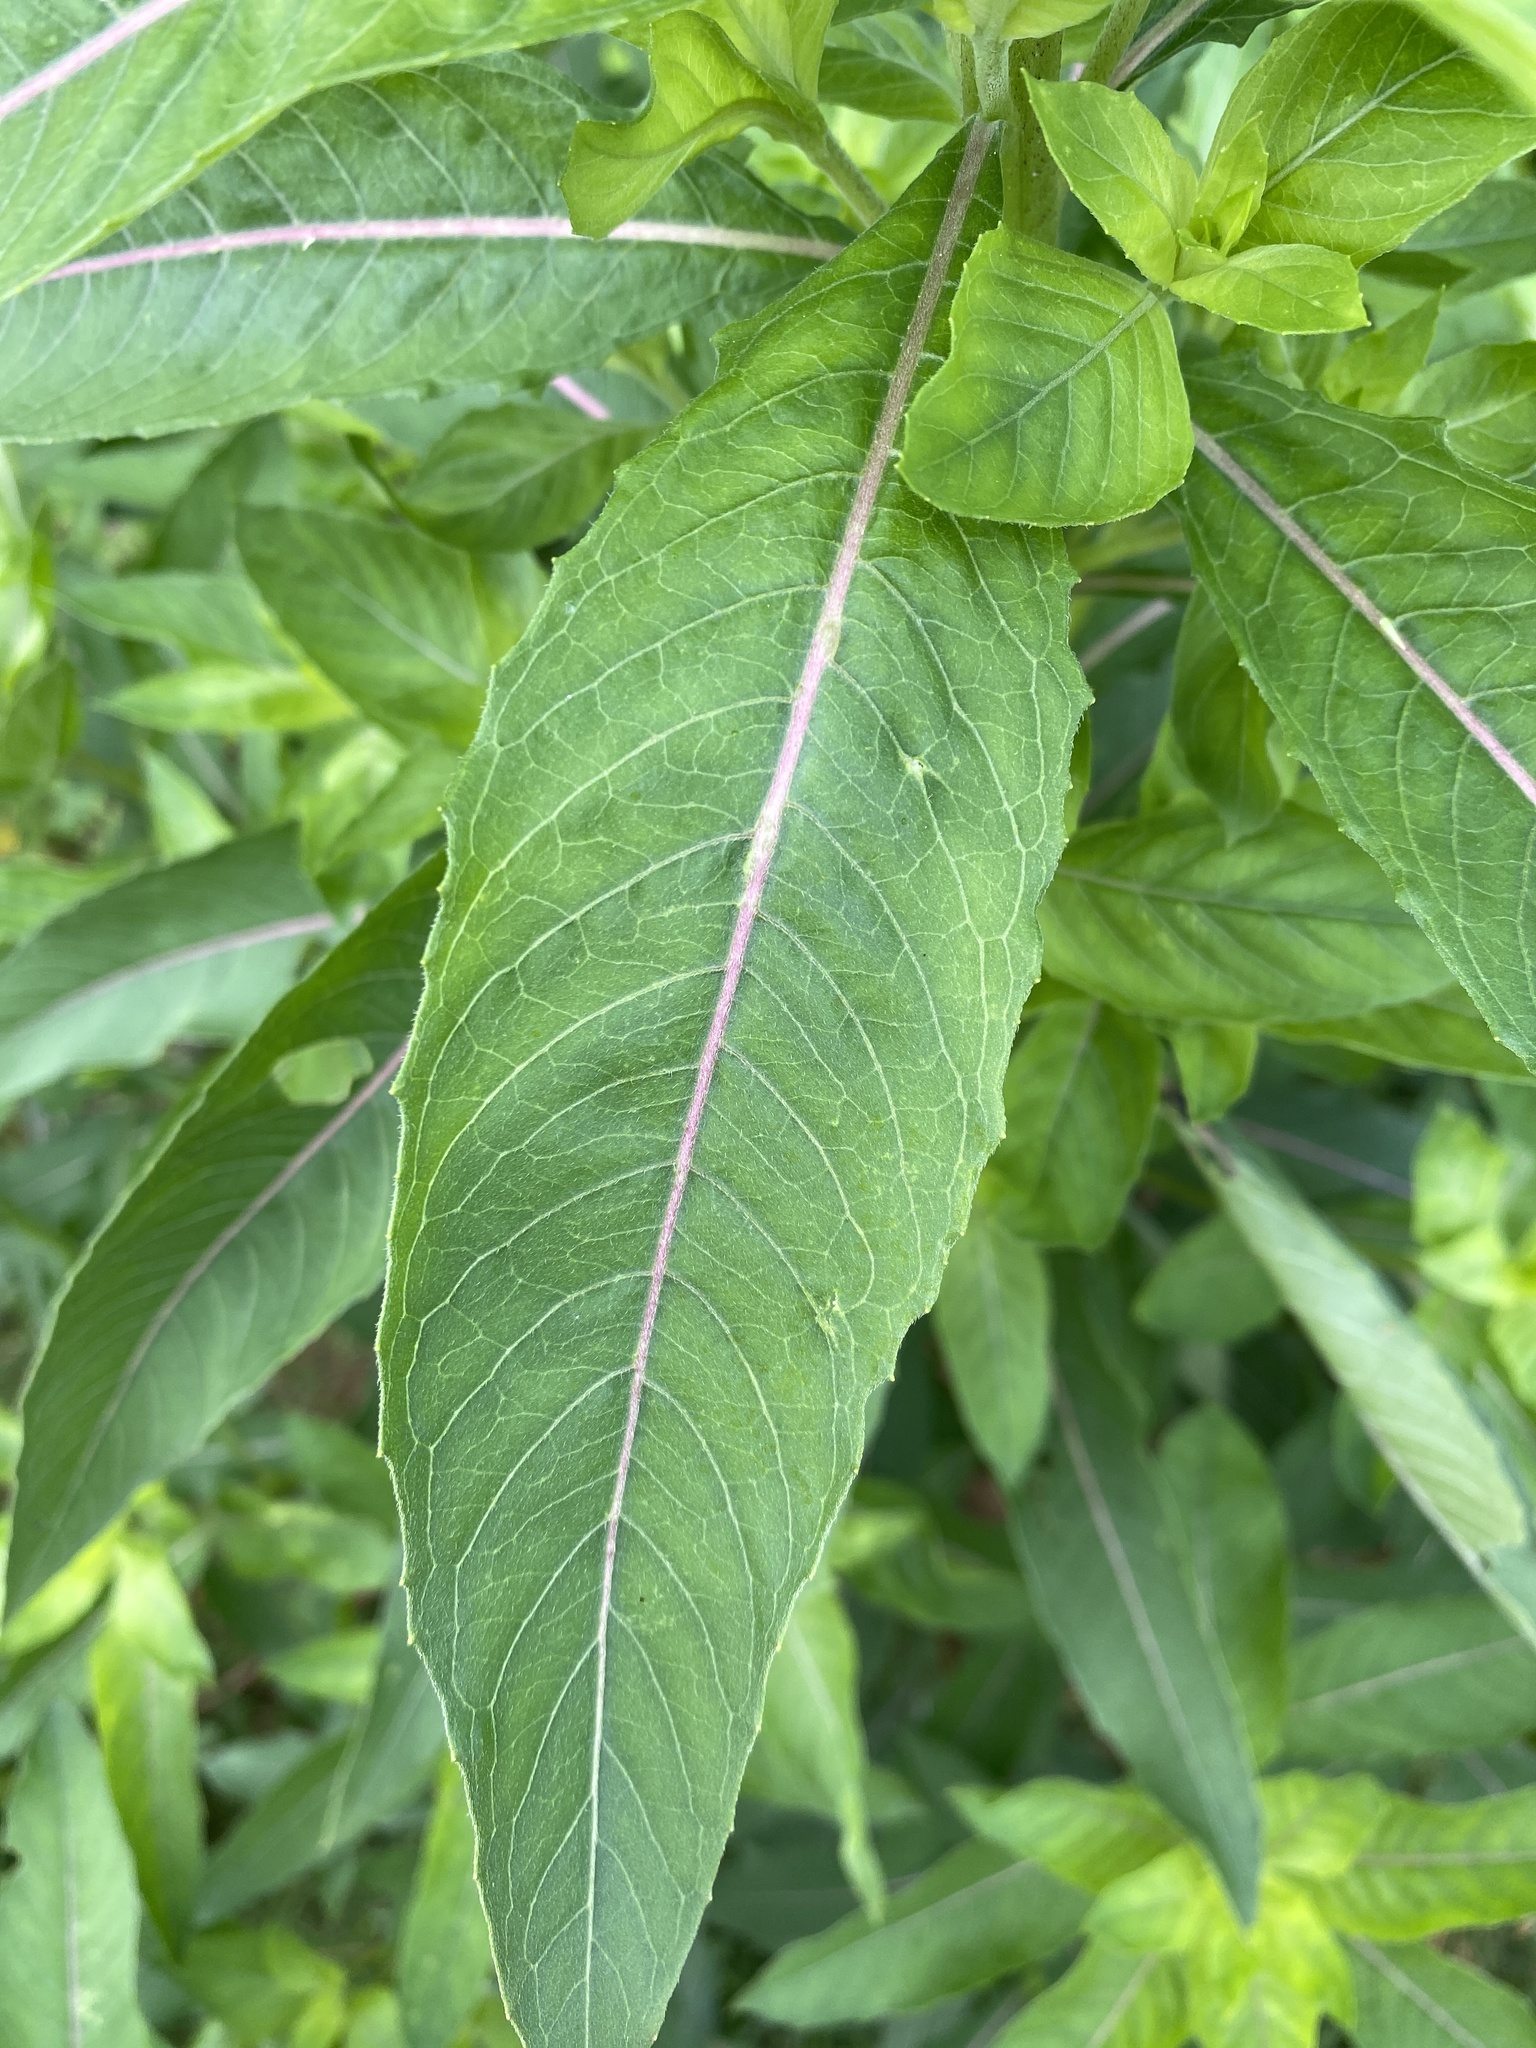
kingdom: Plantae
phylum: Tracheophyta
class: Magnoliopsida
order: Myrtales
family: Onagraceae
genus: Oenothera
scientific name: Oenothera biennis
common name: Common evening-primrose
